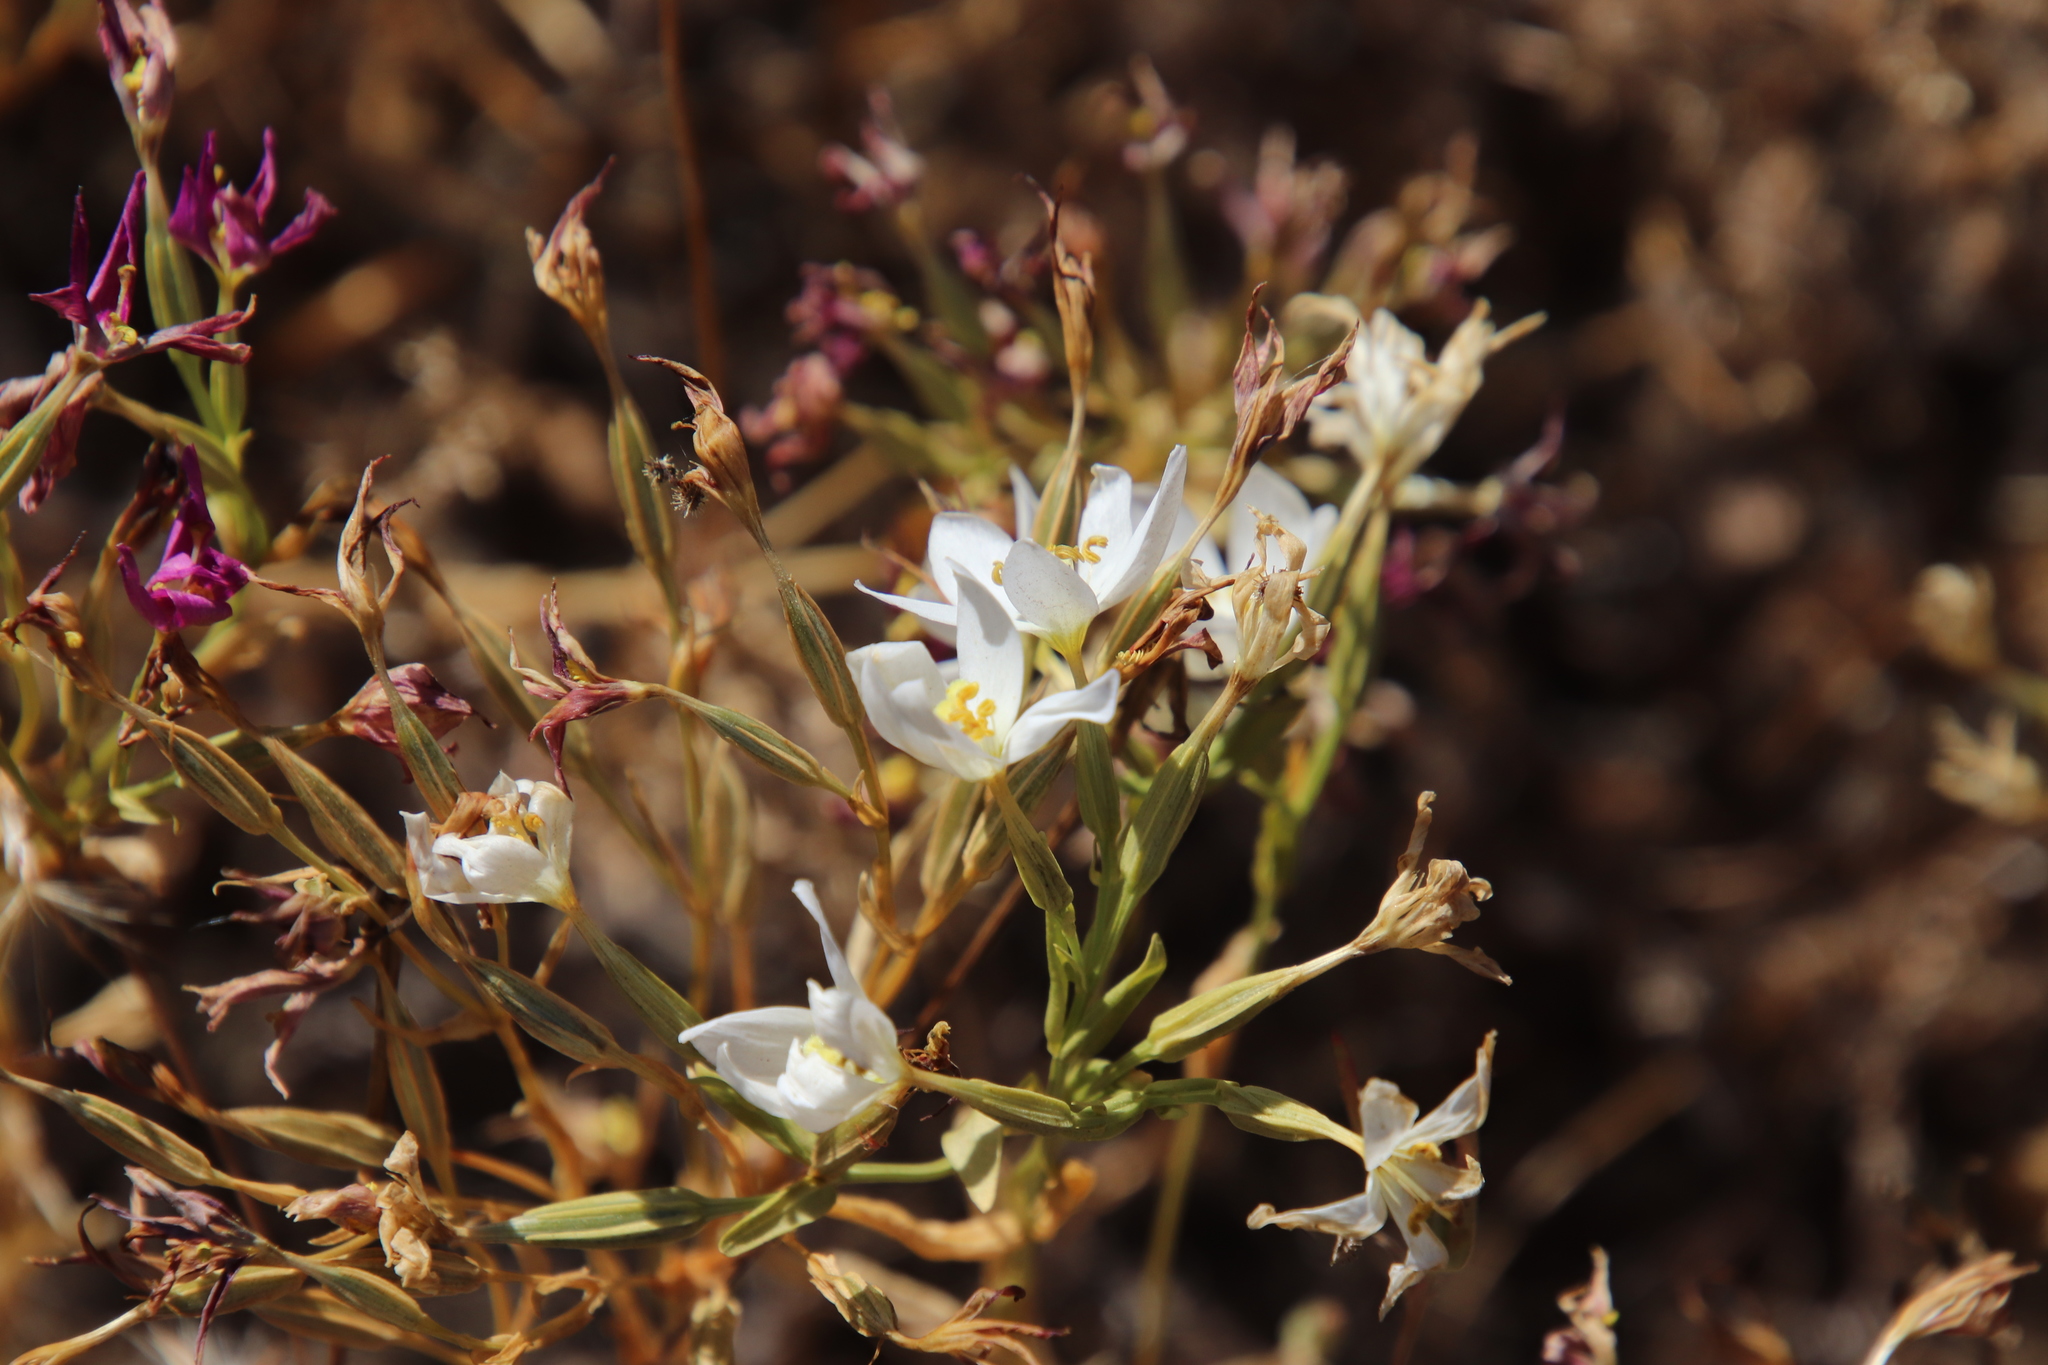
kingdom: Plantae
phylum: Tracheophyta
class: Magnoliopsida
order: Gentianales
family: Gentianaceae
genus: Zeltnera
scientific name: Zeltnera venusta
